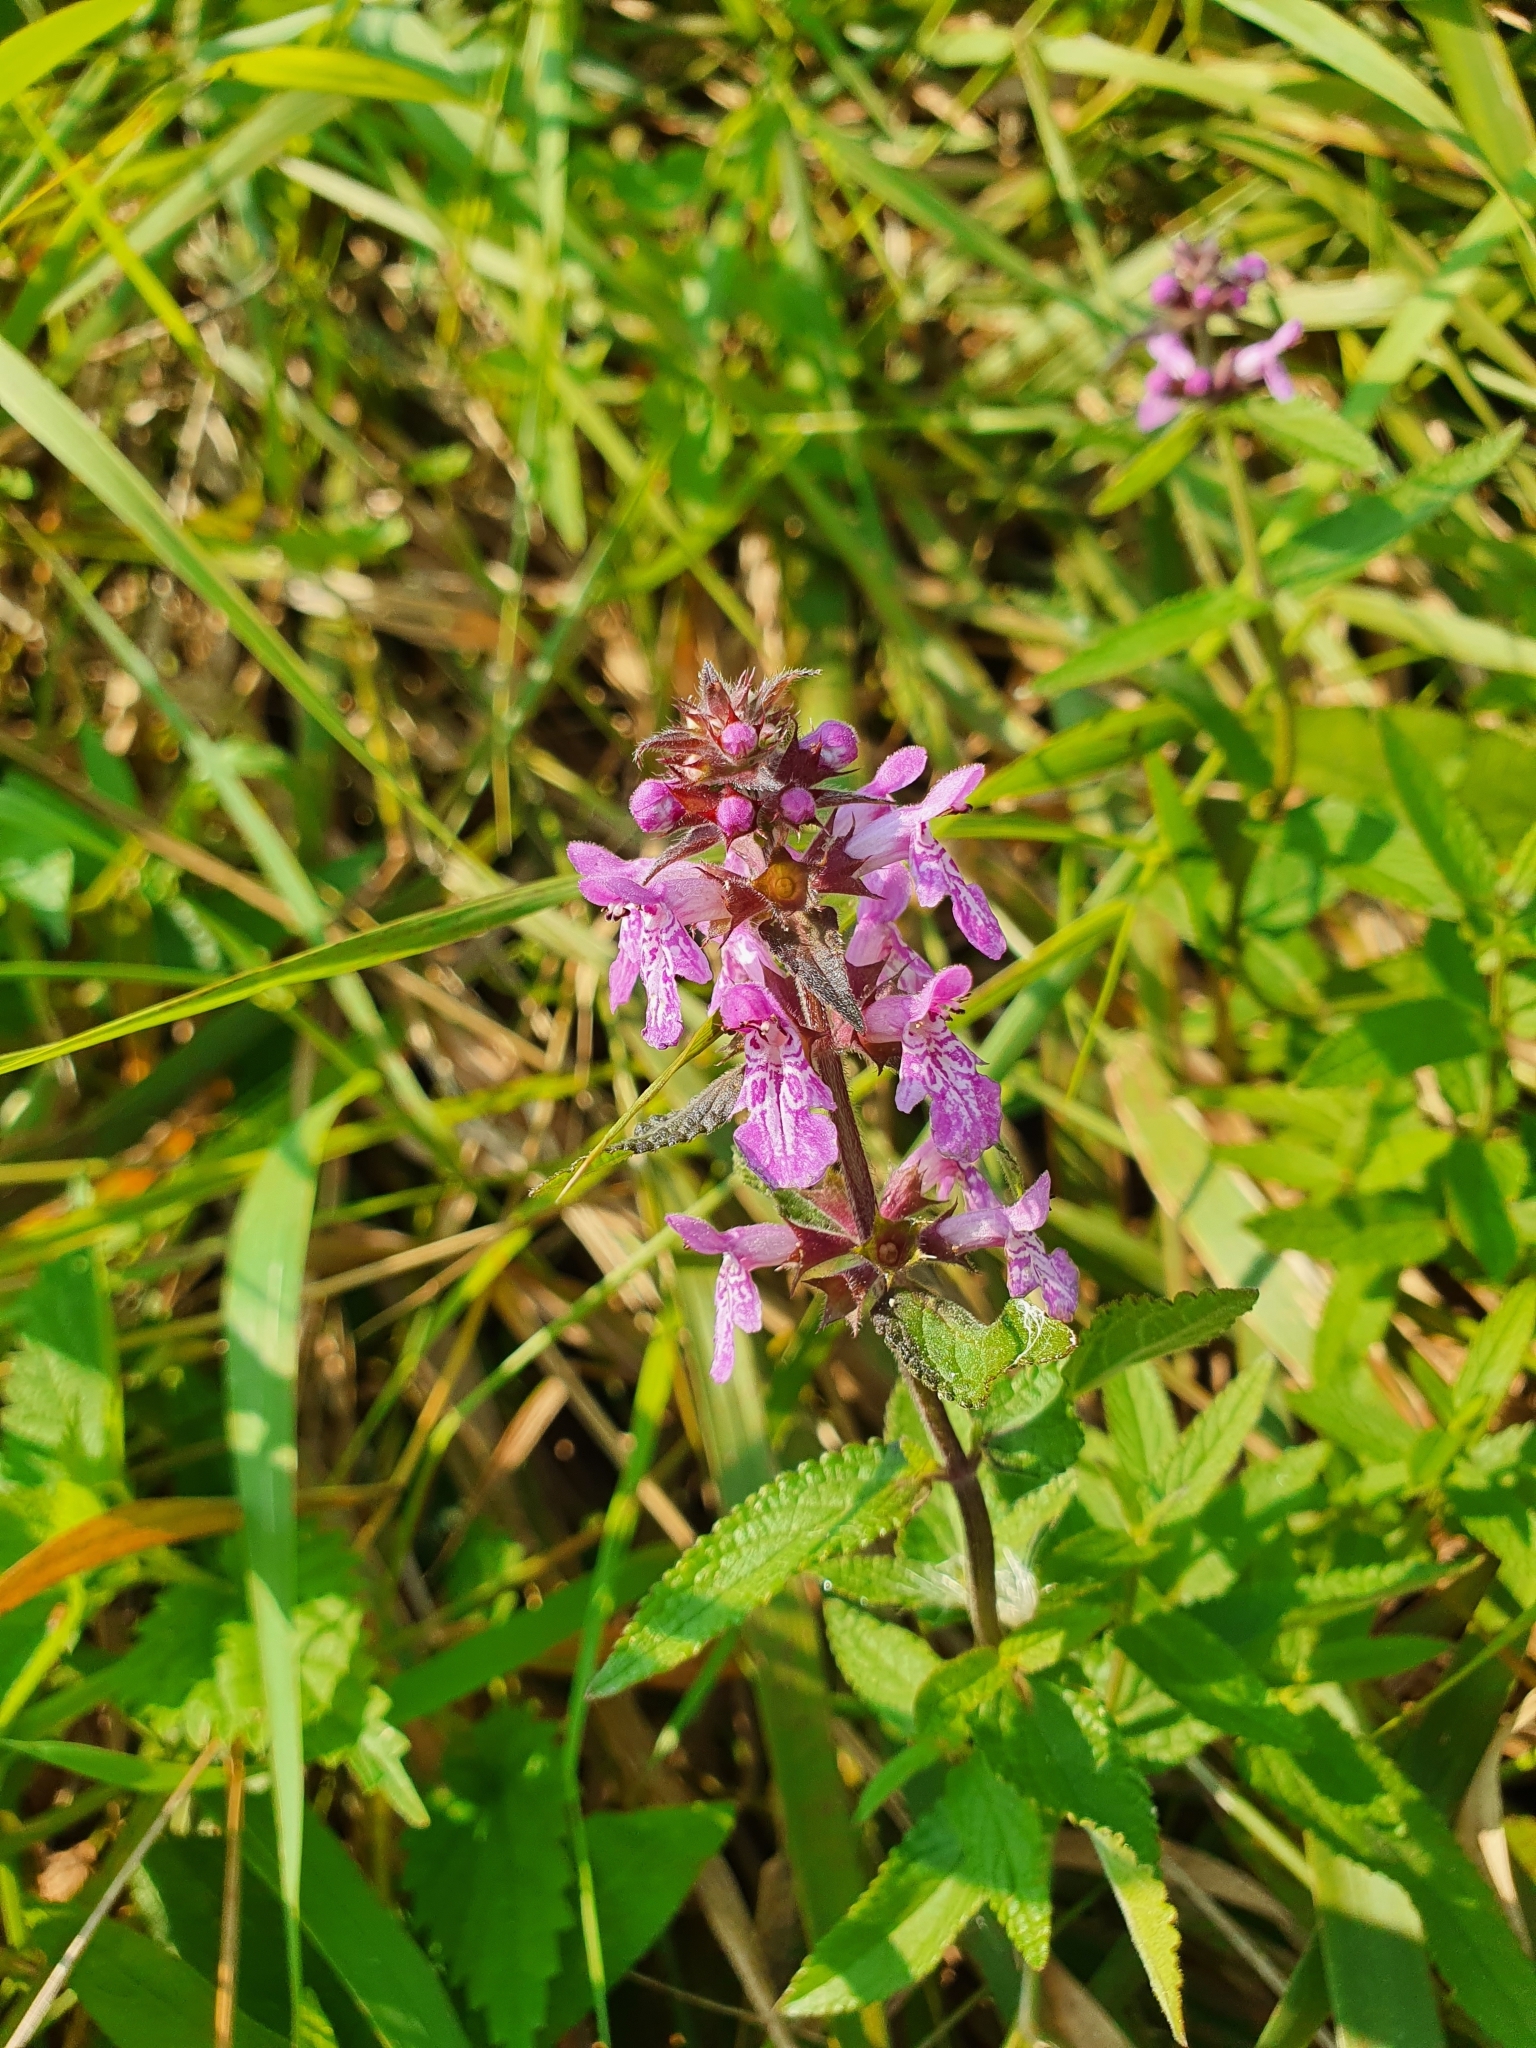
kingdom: Plantae
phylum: Tracheophyta
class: Magnoliopsida
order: Lamiales
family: Lamiaceae
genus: Stachys
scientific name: Stachys palustris
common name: Marsh woundwort
